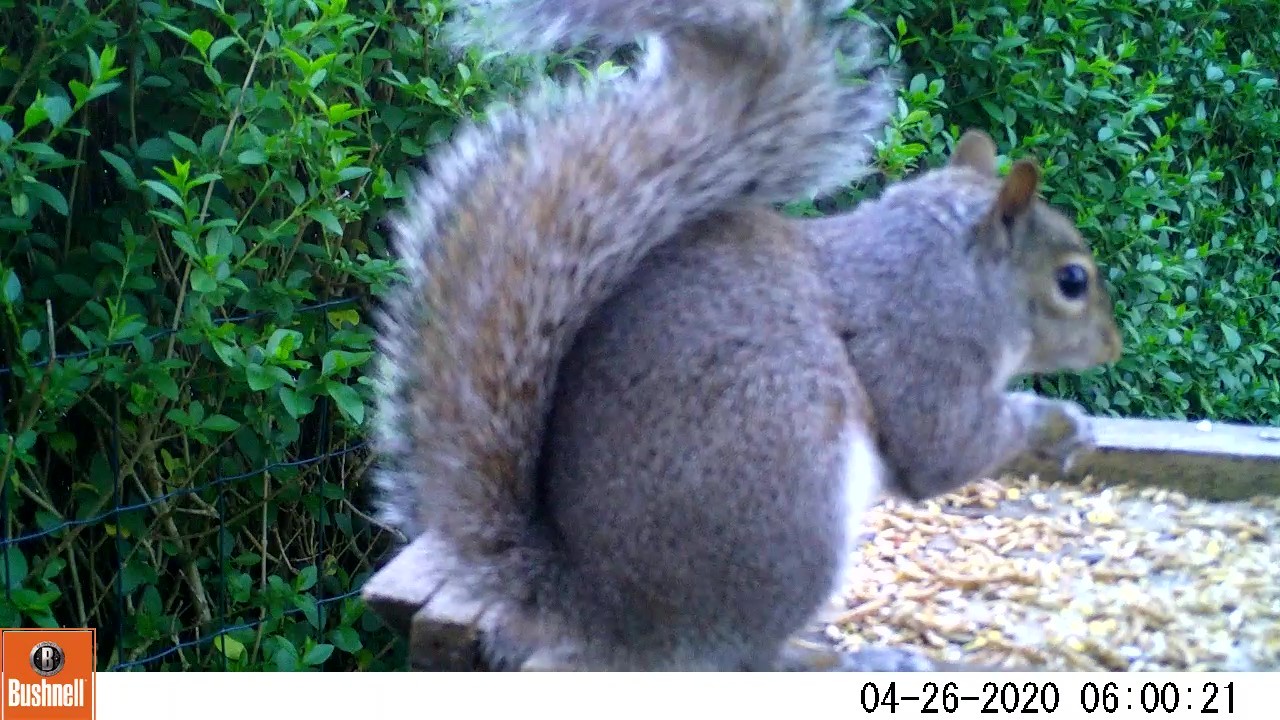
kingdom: Animalia
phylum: Chordata
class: Mammalia
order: Rodentia
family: Sciuridae
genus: Sciurus
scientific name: Sciurus carolinensis
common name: Eastern gray squirrel
